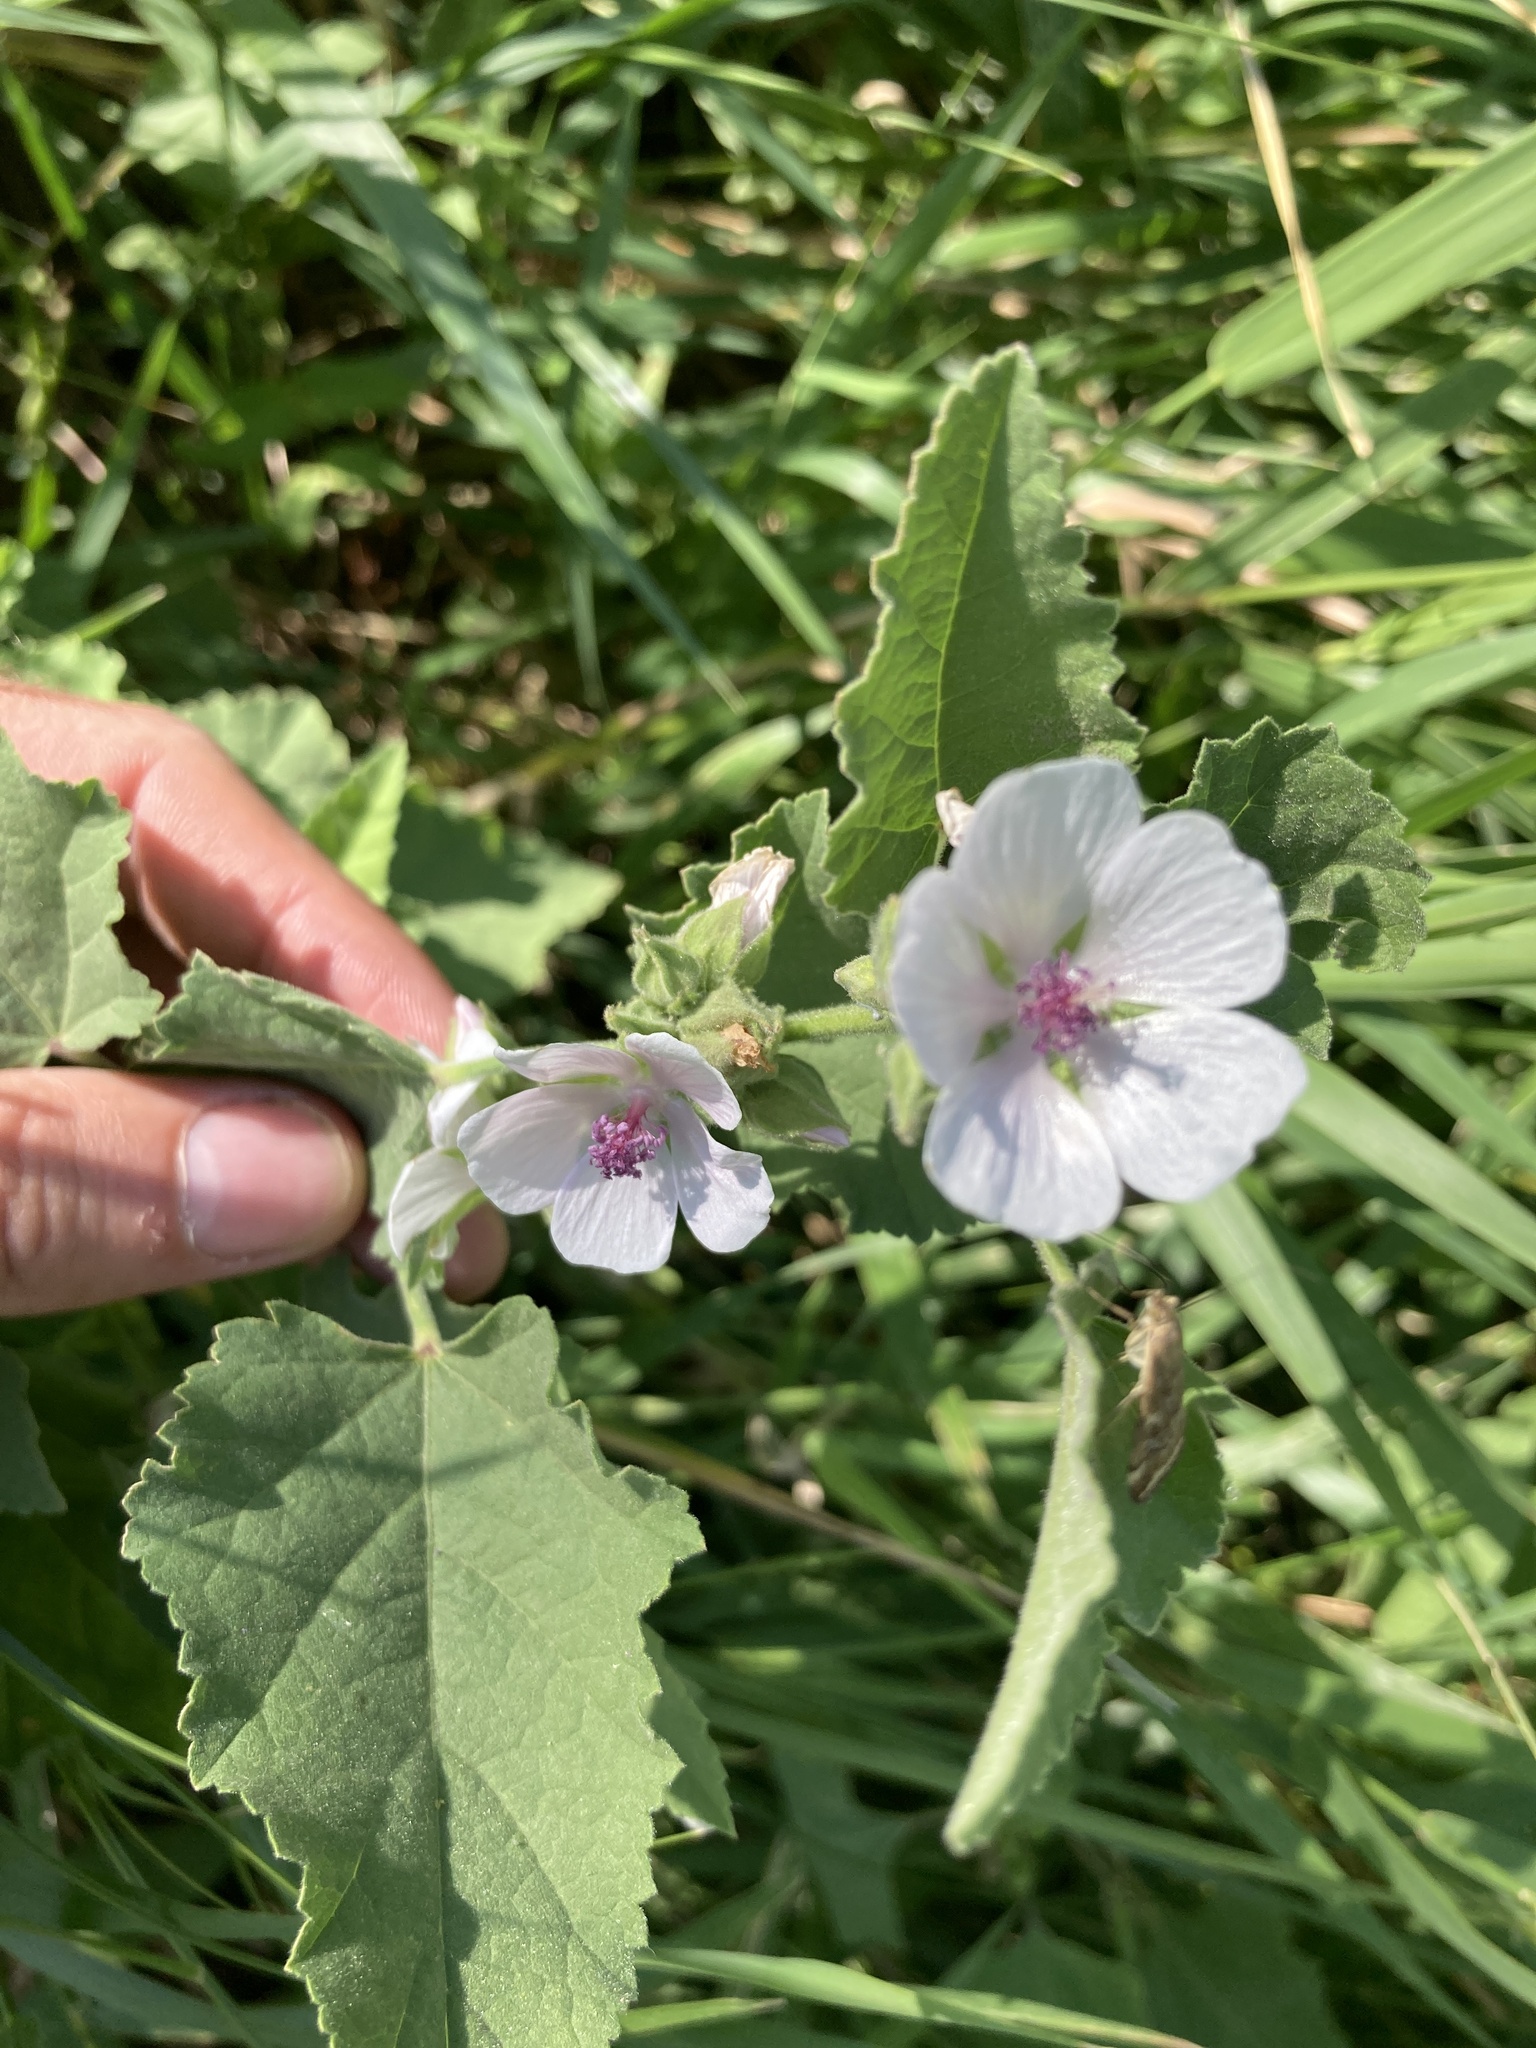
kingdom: Plantae
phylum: Tracheophyta
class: Magnoliopsida
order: Malvales
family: Malvaceae
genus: Althaea
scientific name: Althaea officinalis
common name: Marsh-mallow
